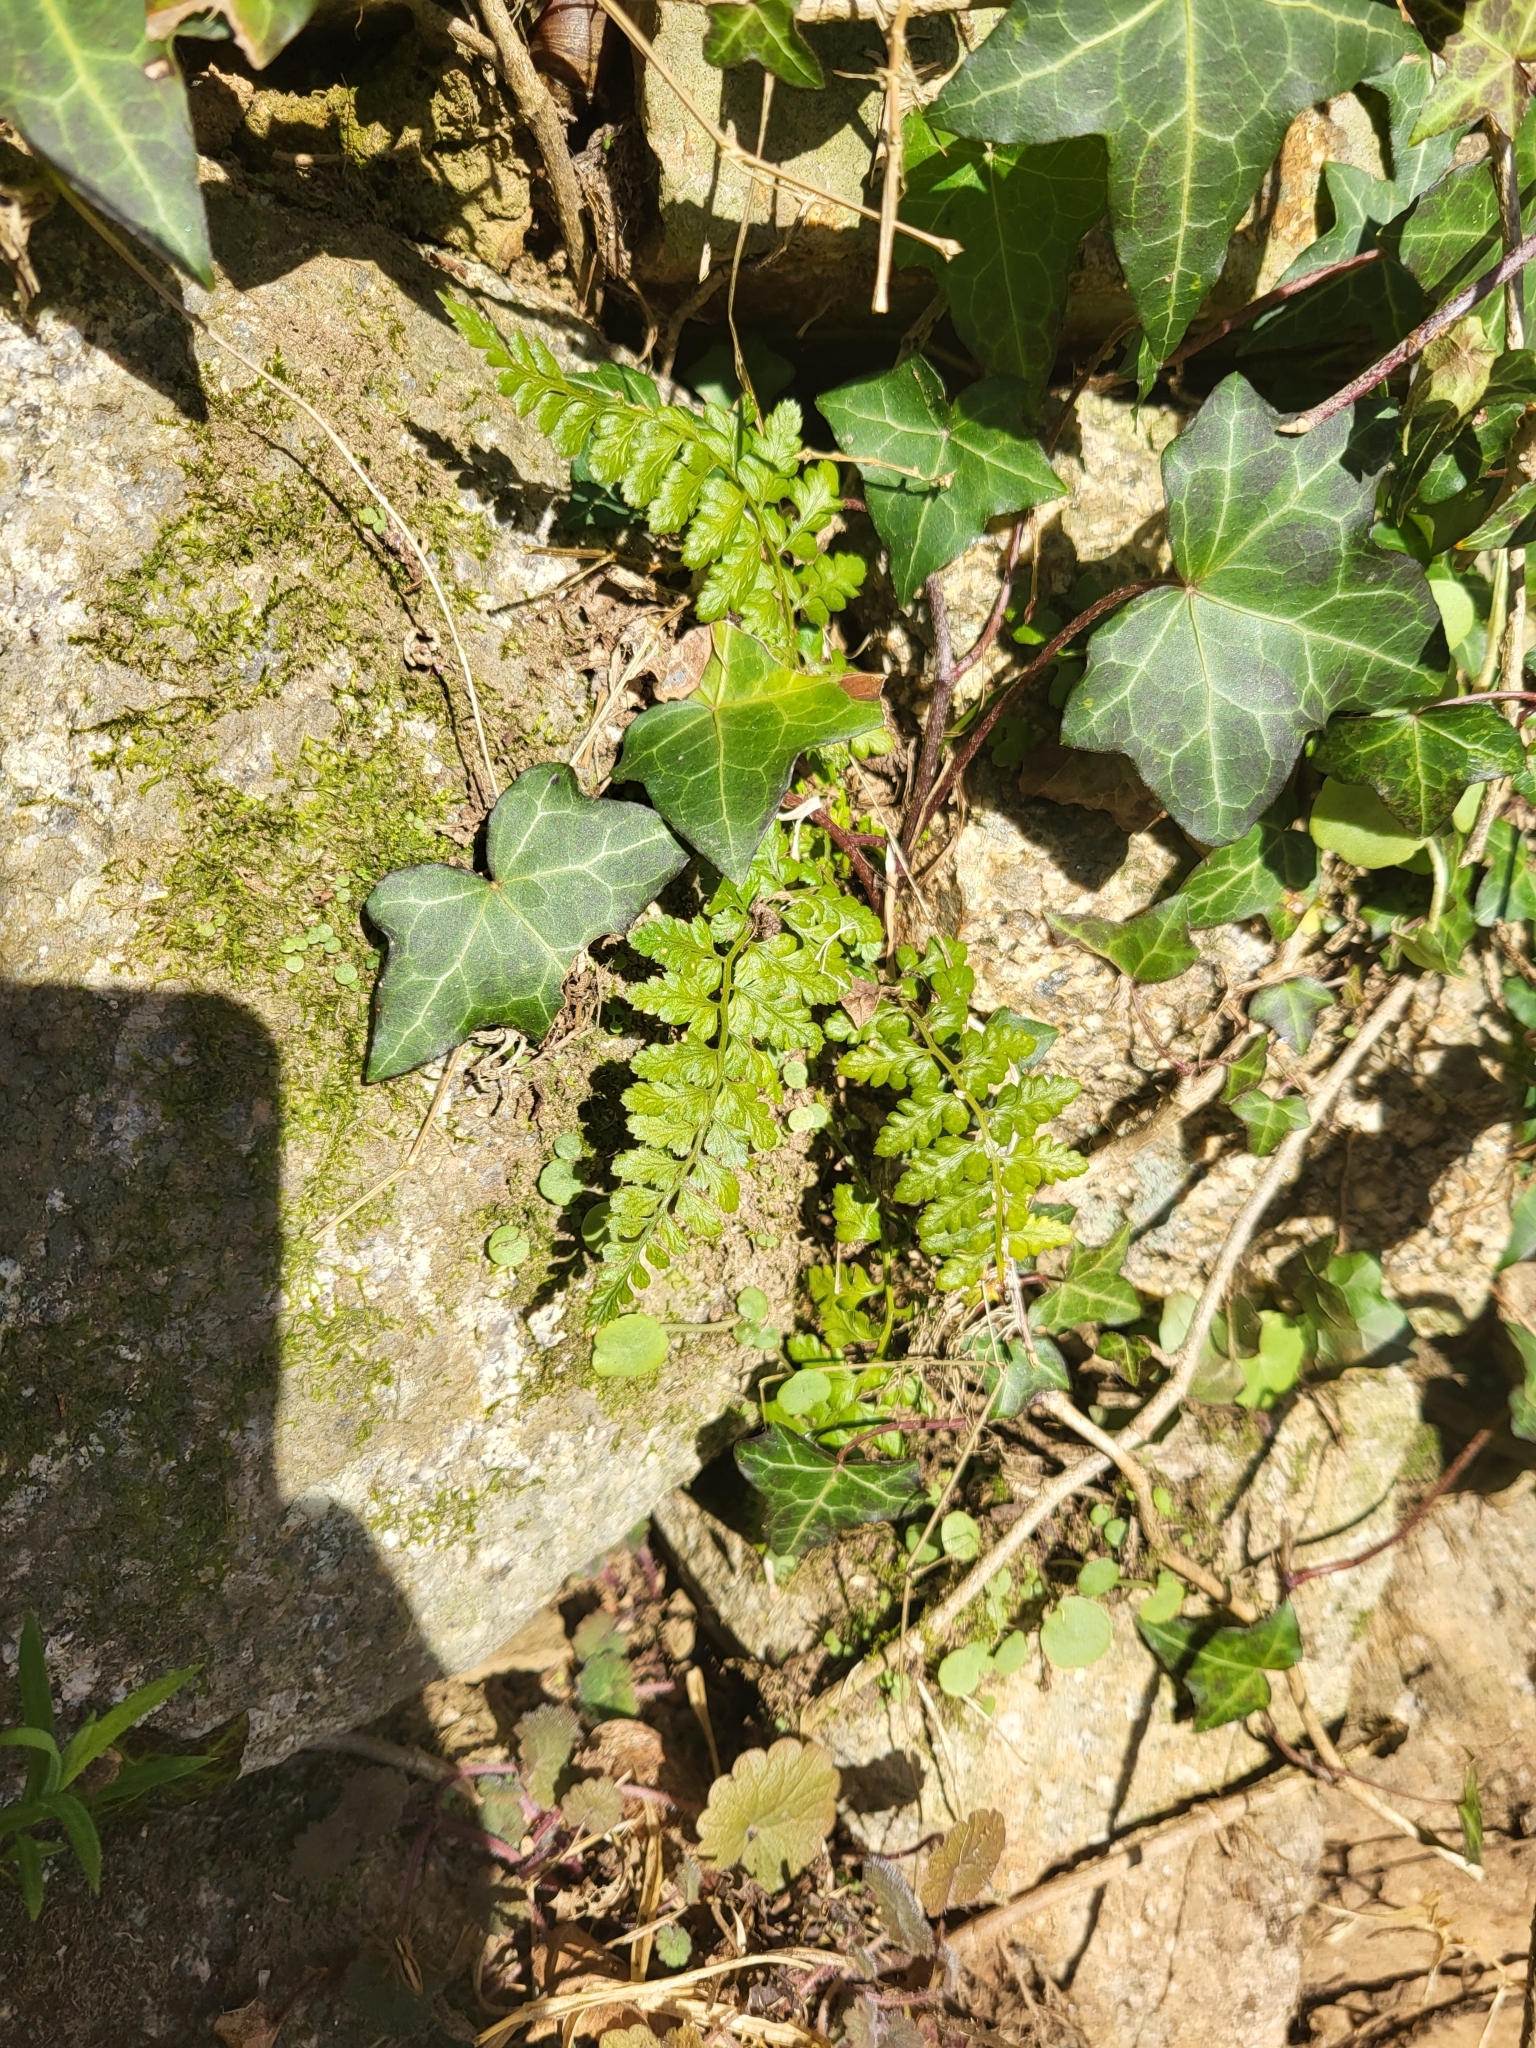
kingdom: Plantae
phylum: Tracheophyta
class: Polypodiopsida
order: Polypodiales
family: Aspleniaceae
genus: Asplenium
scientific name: Asplenium obovatum
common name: Lanceolate spleenwort
